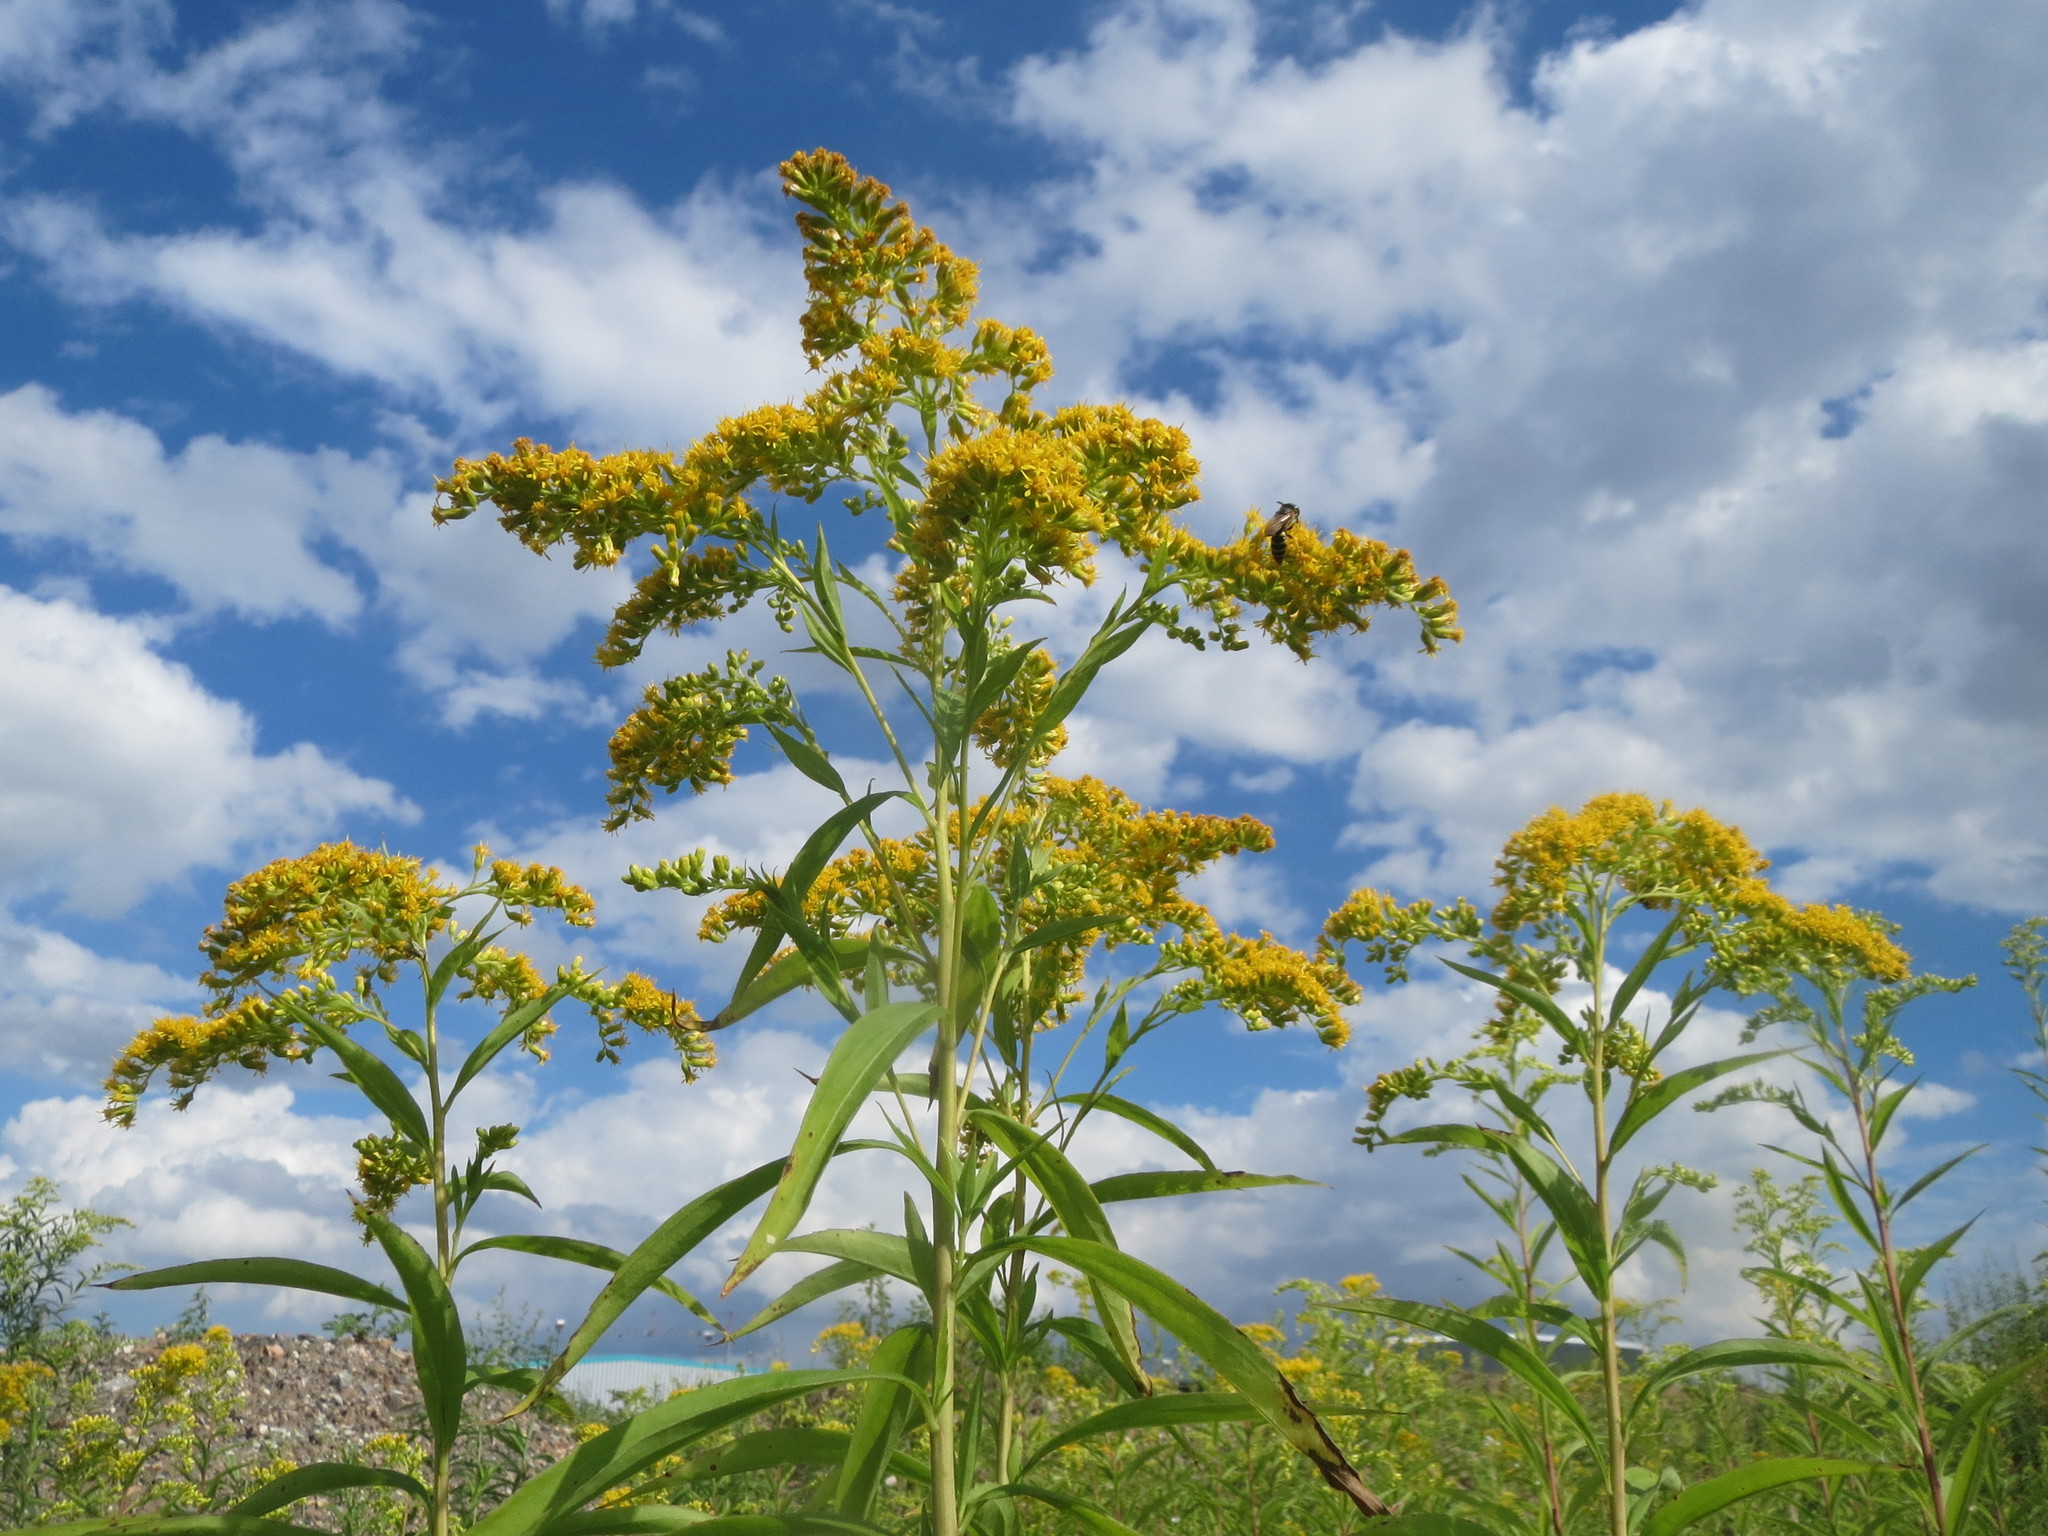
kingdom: Plantae
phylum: Tracheophyta
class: Magnoliopsida
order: Asterales
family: Asteraceae
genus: Solidago
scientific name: Solidago gigantea
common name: Giant goldenrod
